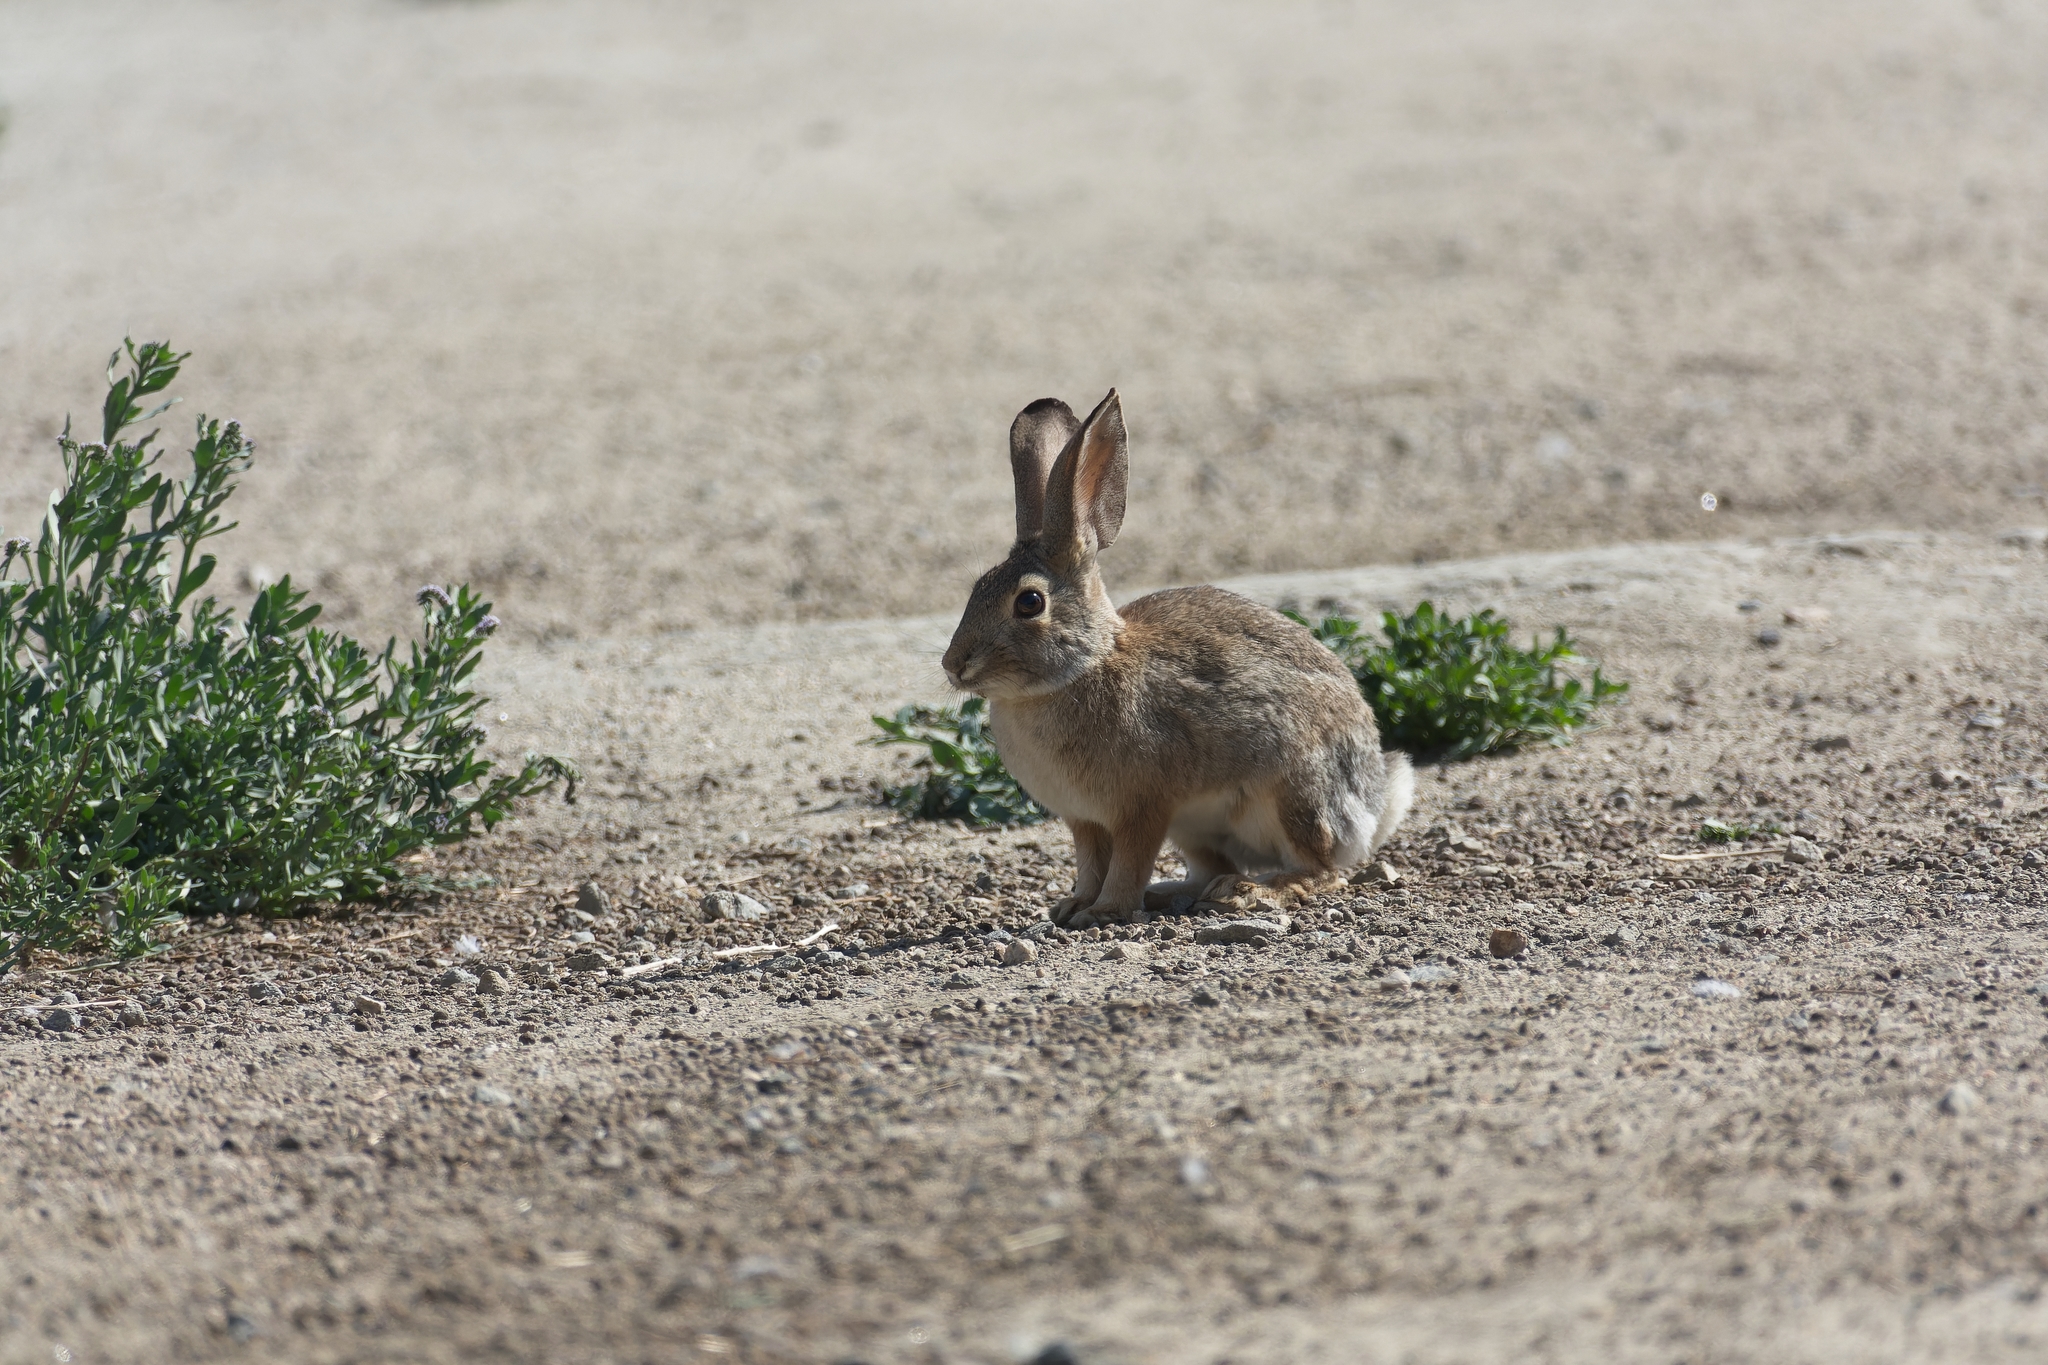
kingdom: Animalia
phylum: Chordata
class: Mammalia
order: Lagomorpha
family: Leporidae
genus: Sylvilagus
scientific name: Sylvilagus audubonii
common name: Desert cottontail
